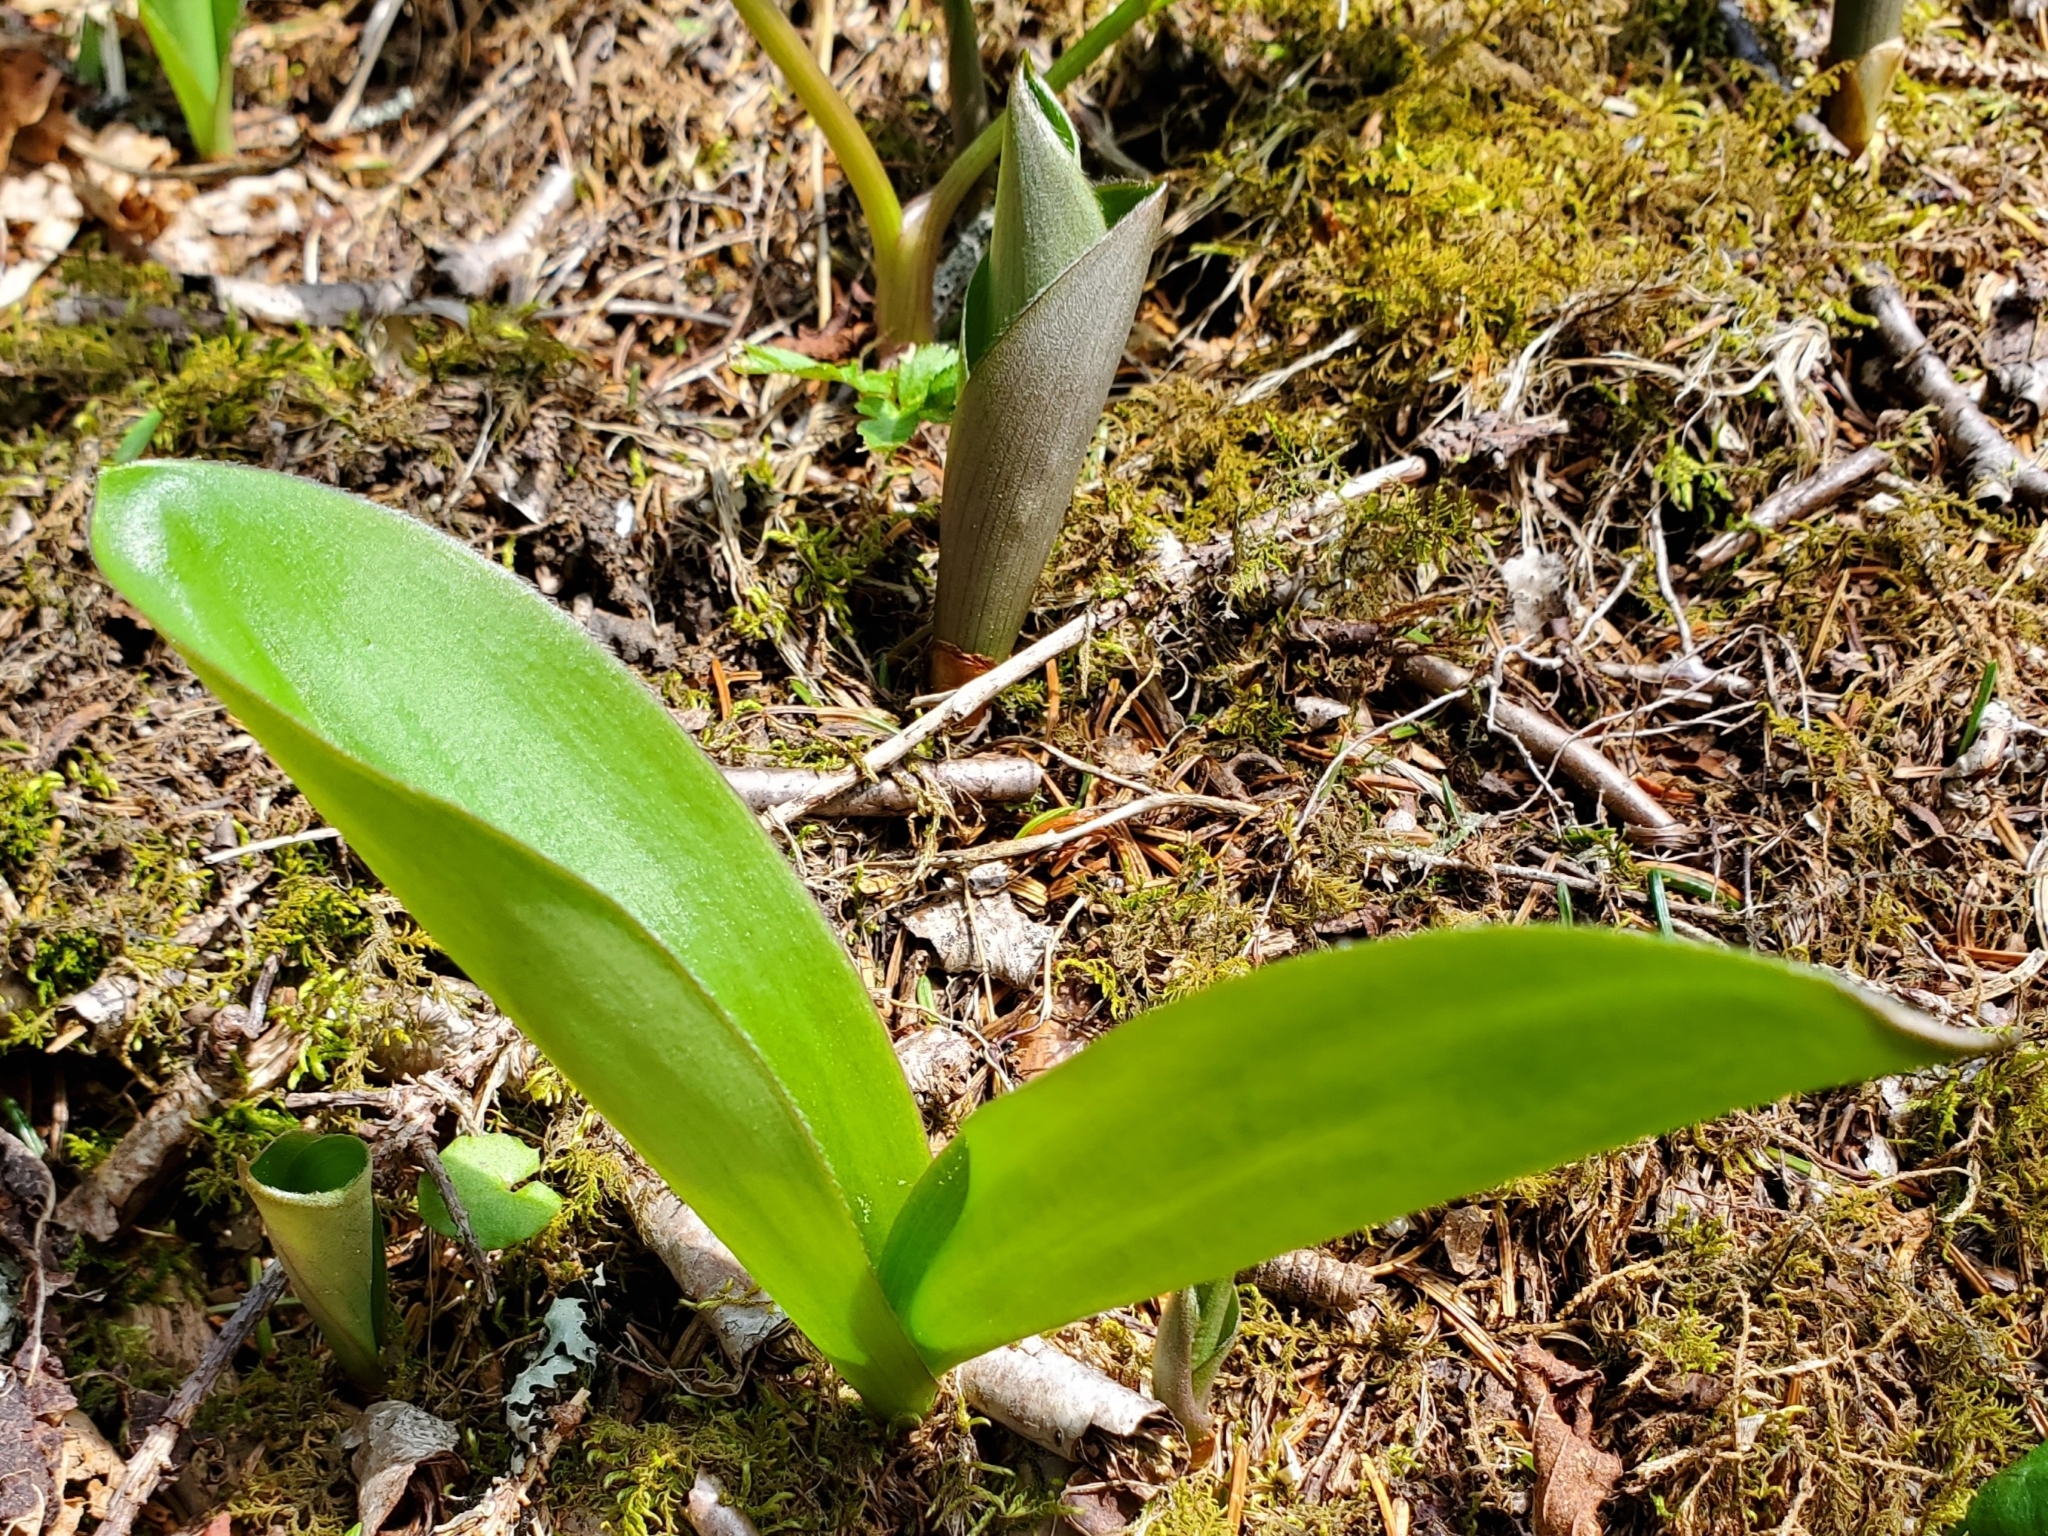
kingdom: Plantae
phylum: Tracheophyta
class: Liliopsida
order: Liliales
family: Liliaceae
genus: Clintonia
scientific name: Clintonia borealis
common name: Yellow clintonia
